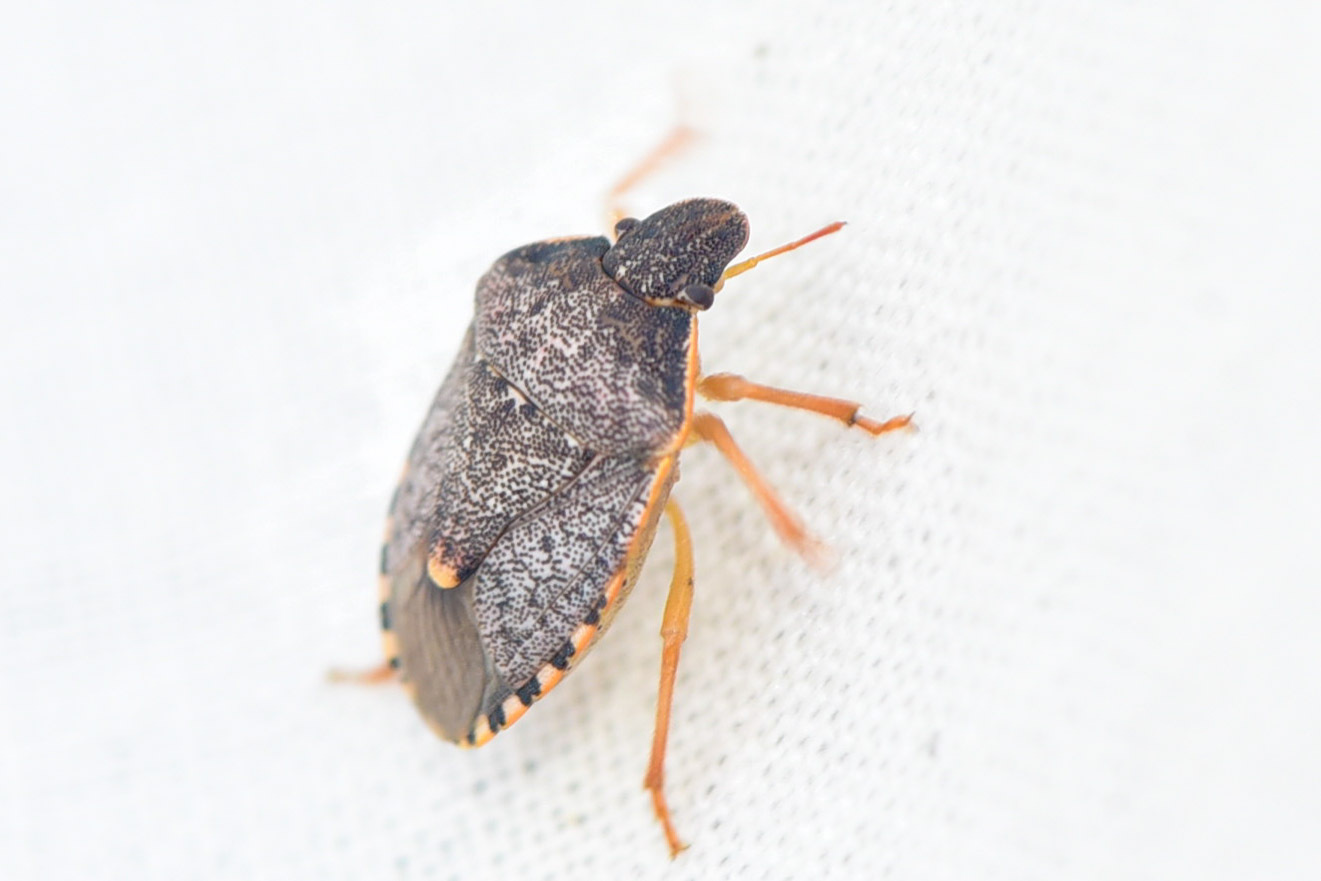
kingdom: Animalia
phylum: Arthropoda
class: Insecta
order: Hemiptera
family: Pentatomidae
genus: Holcostethus
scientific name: Holcostethus abbreviatus
